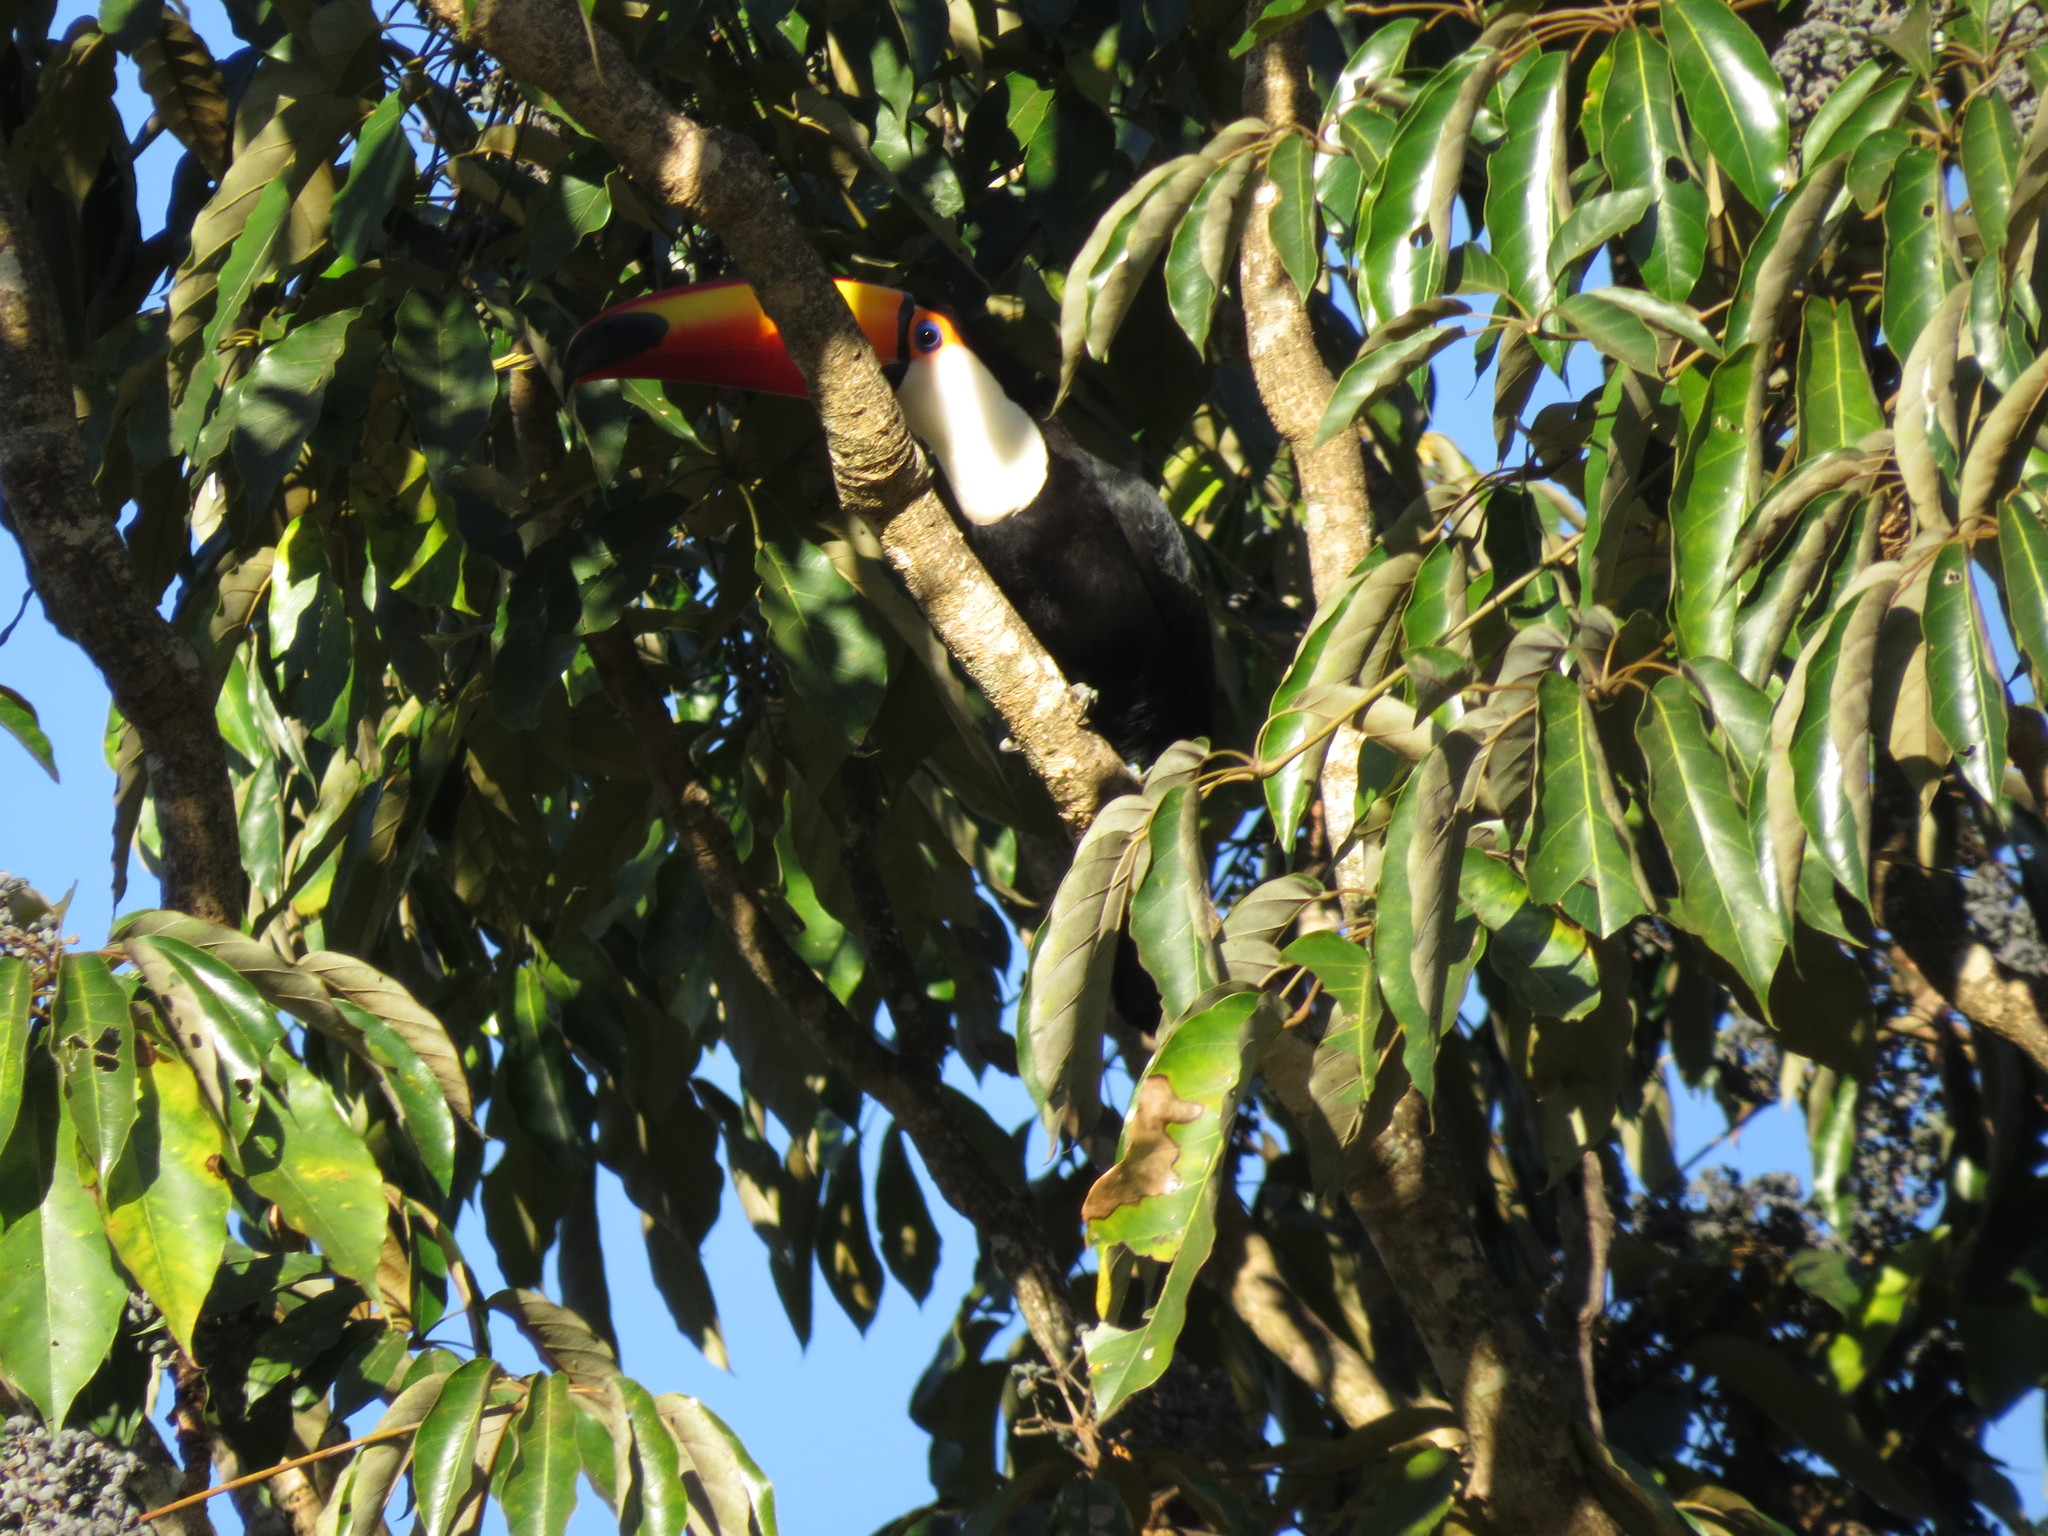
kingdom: Animalia
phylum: Chordata
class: Aves
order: Piciformes
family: Ramphastidae
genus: Ramphastos
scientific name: Ramphastos toco
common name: Toco toucan
